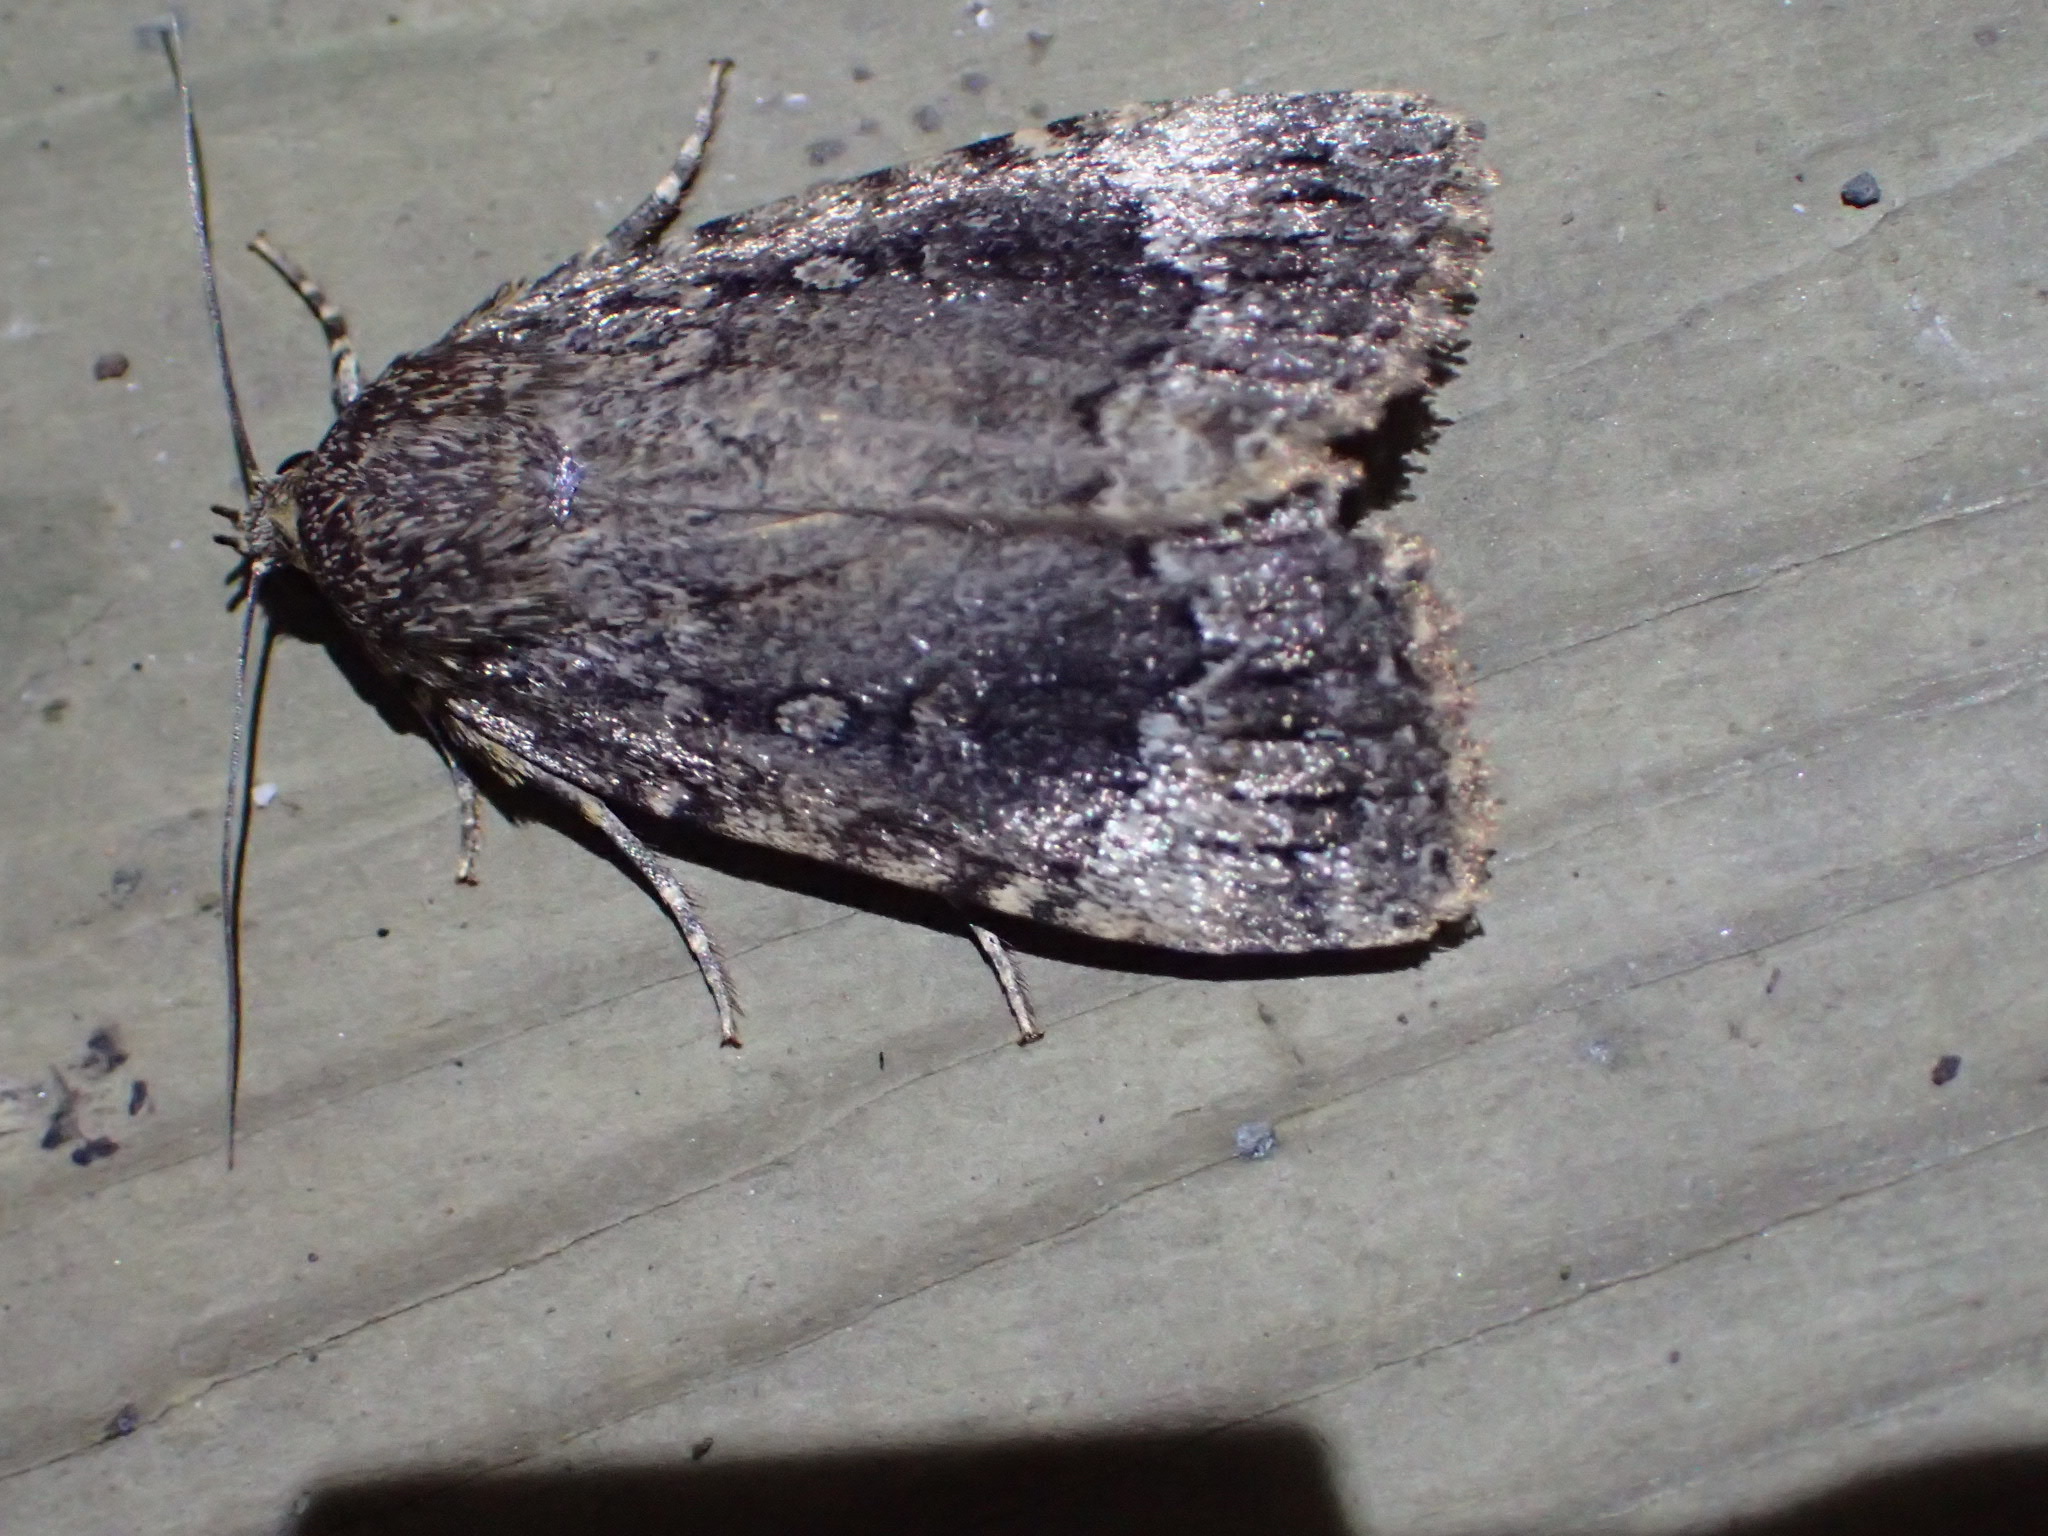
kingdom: Animalia
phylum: Arthropoda
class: Insecta
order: Lepidoptera
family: Noctuidae
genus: Amphipyra
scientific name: Amphipyra pyramidoides
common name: American copper underwing
